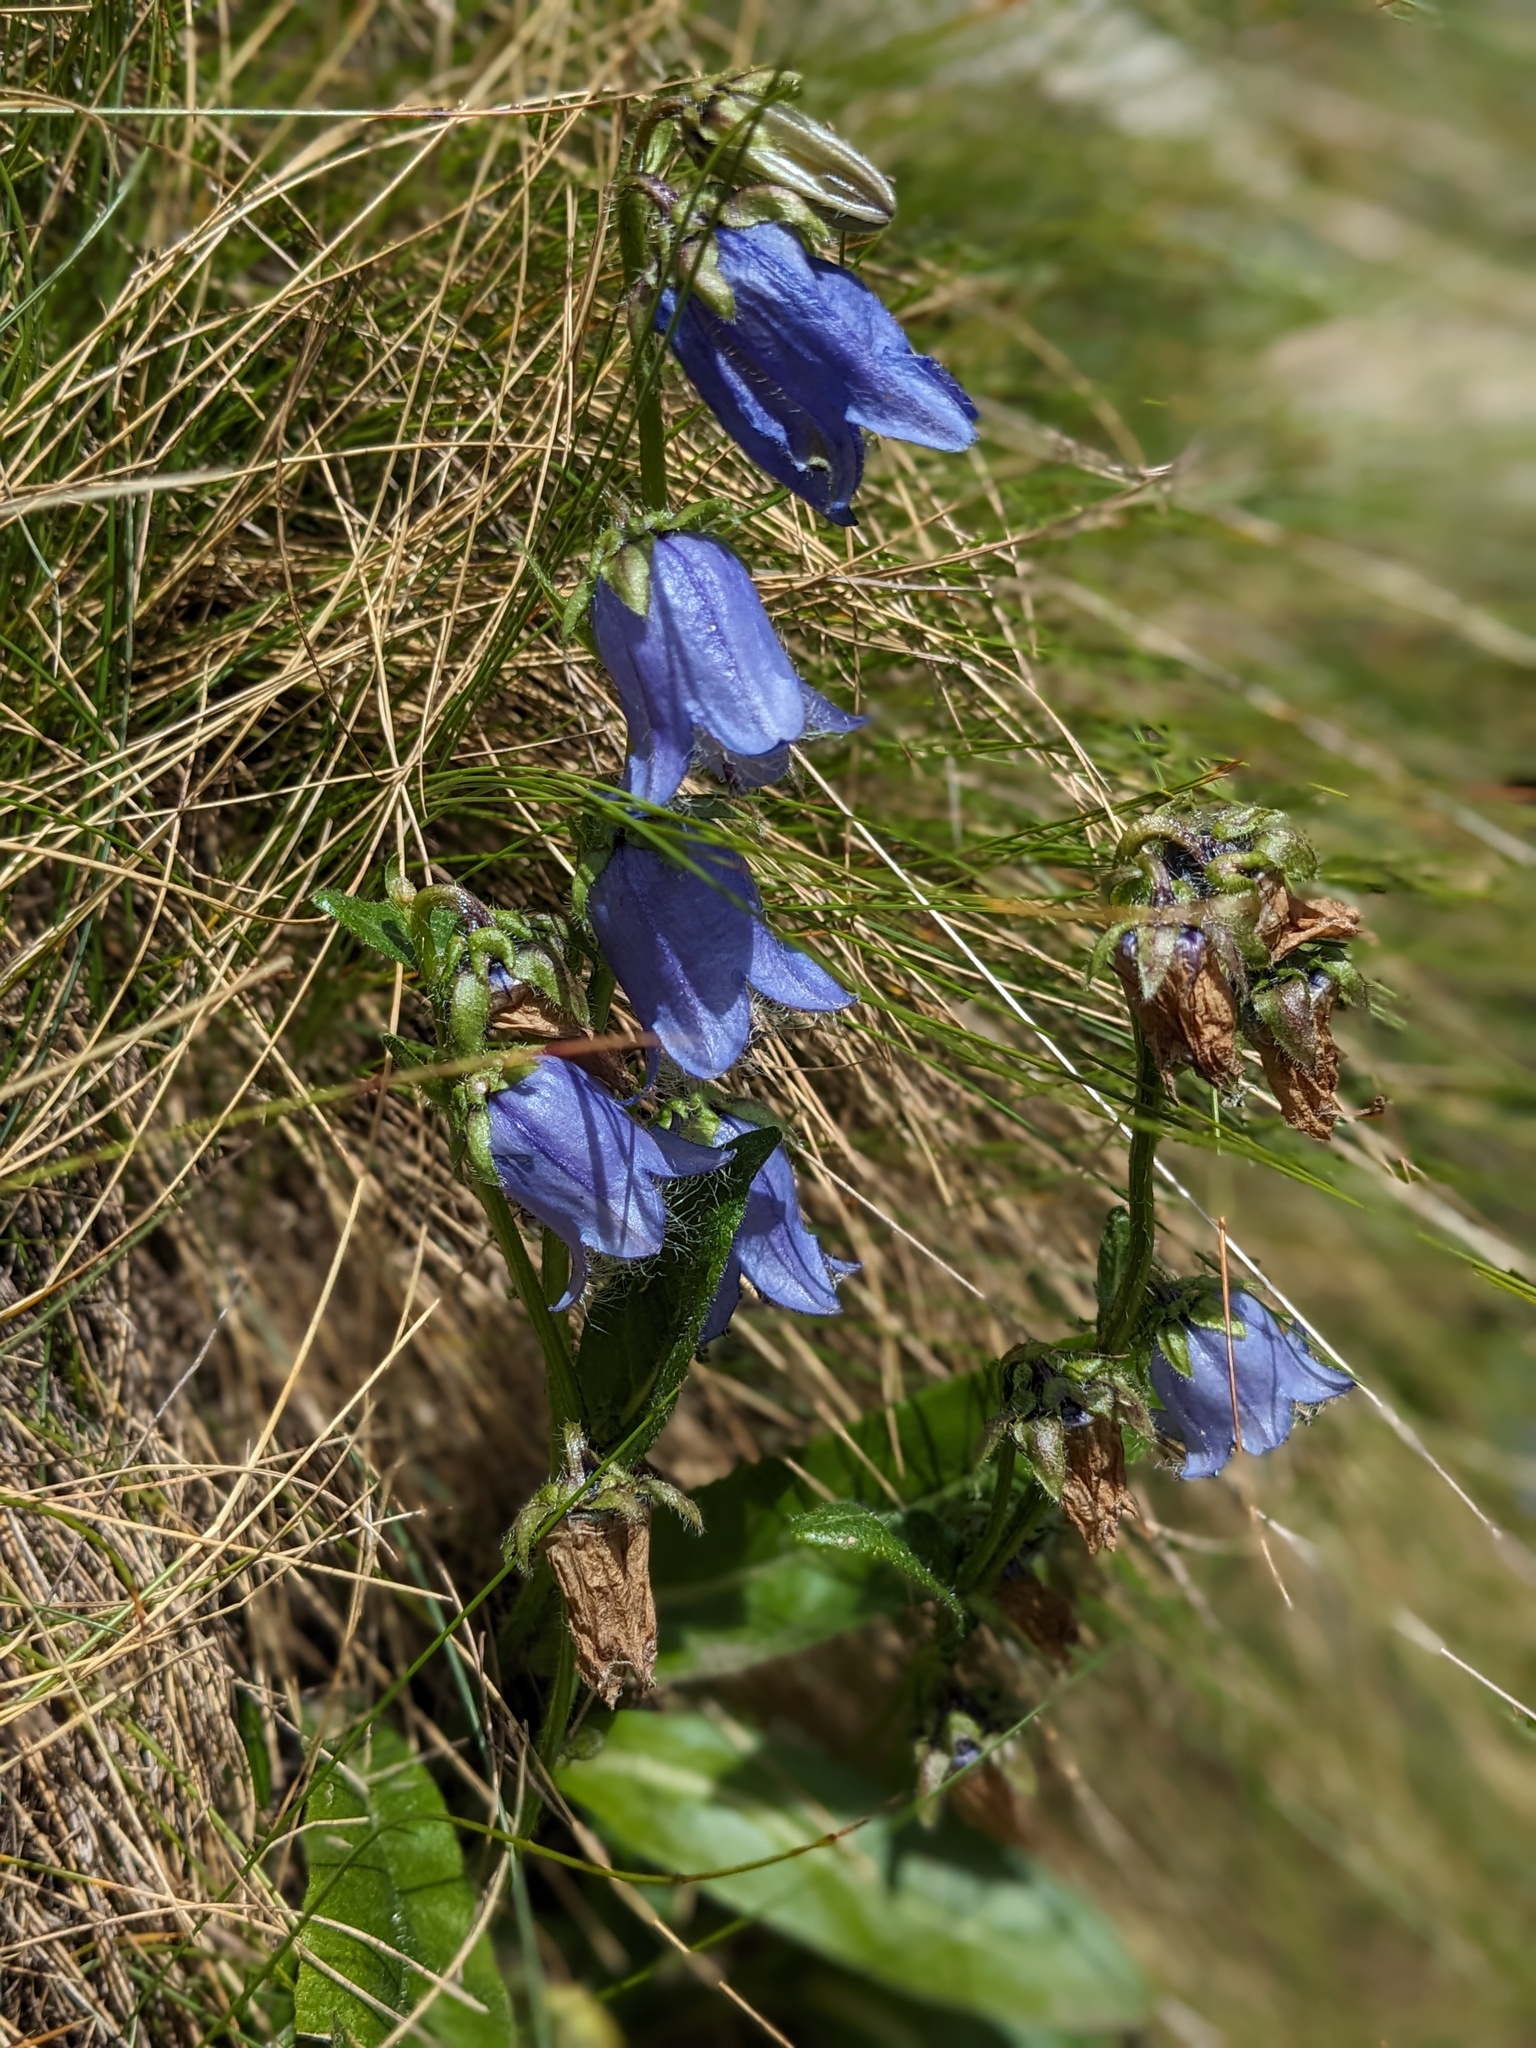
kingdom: Plantae
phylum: Tracheophyta
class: Magnoliopsida
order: Asterales
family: Campanulaceae
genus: Campanula
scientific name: Campanula barbata
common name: Bearded bellflower
